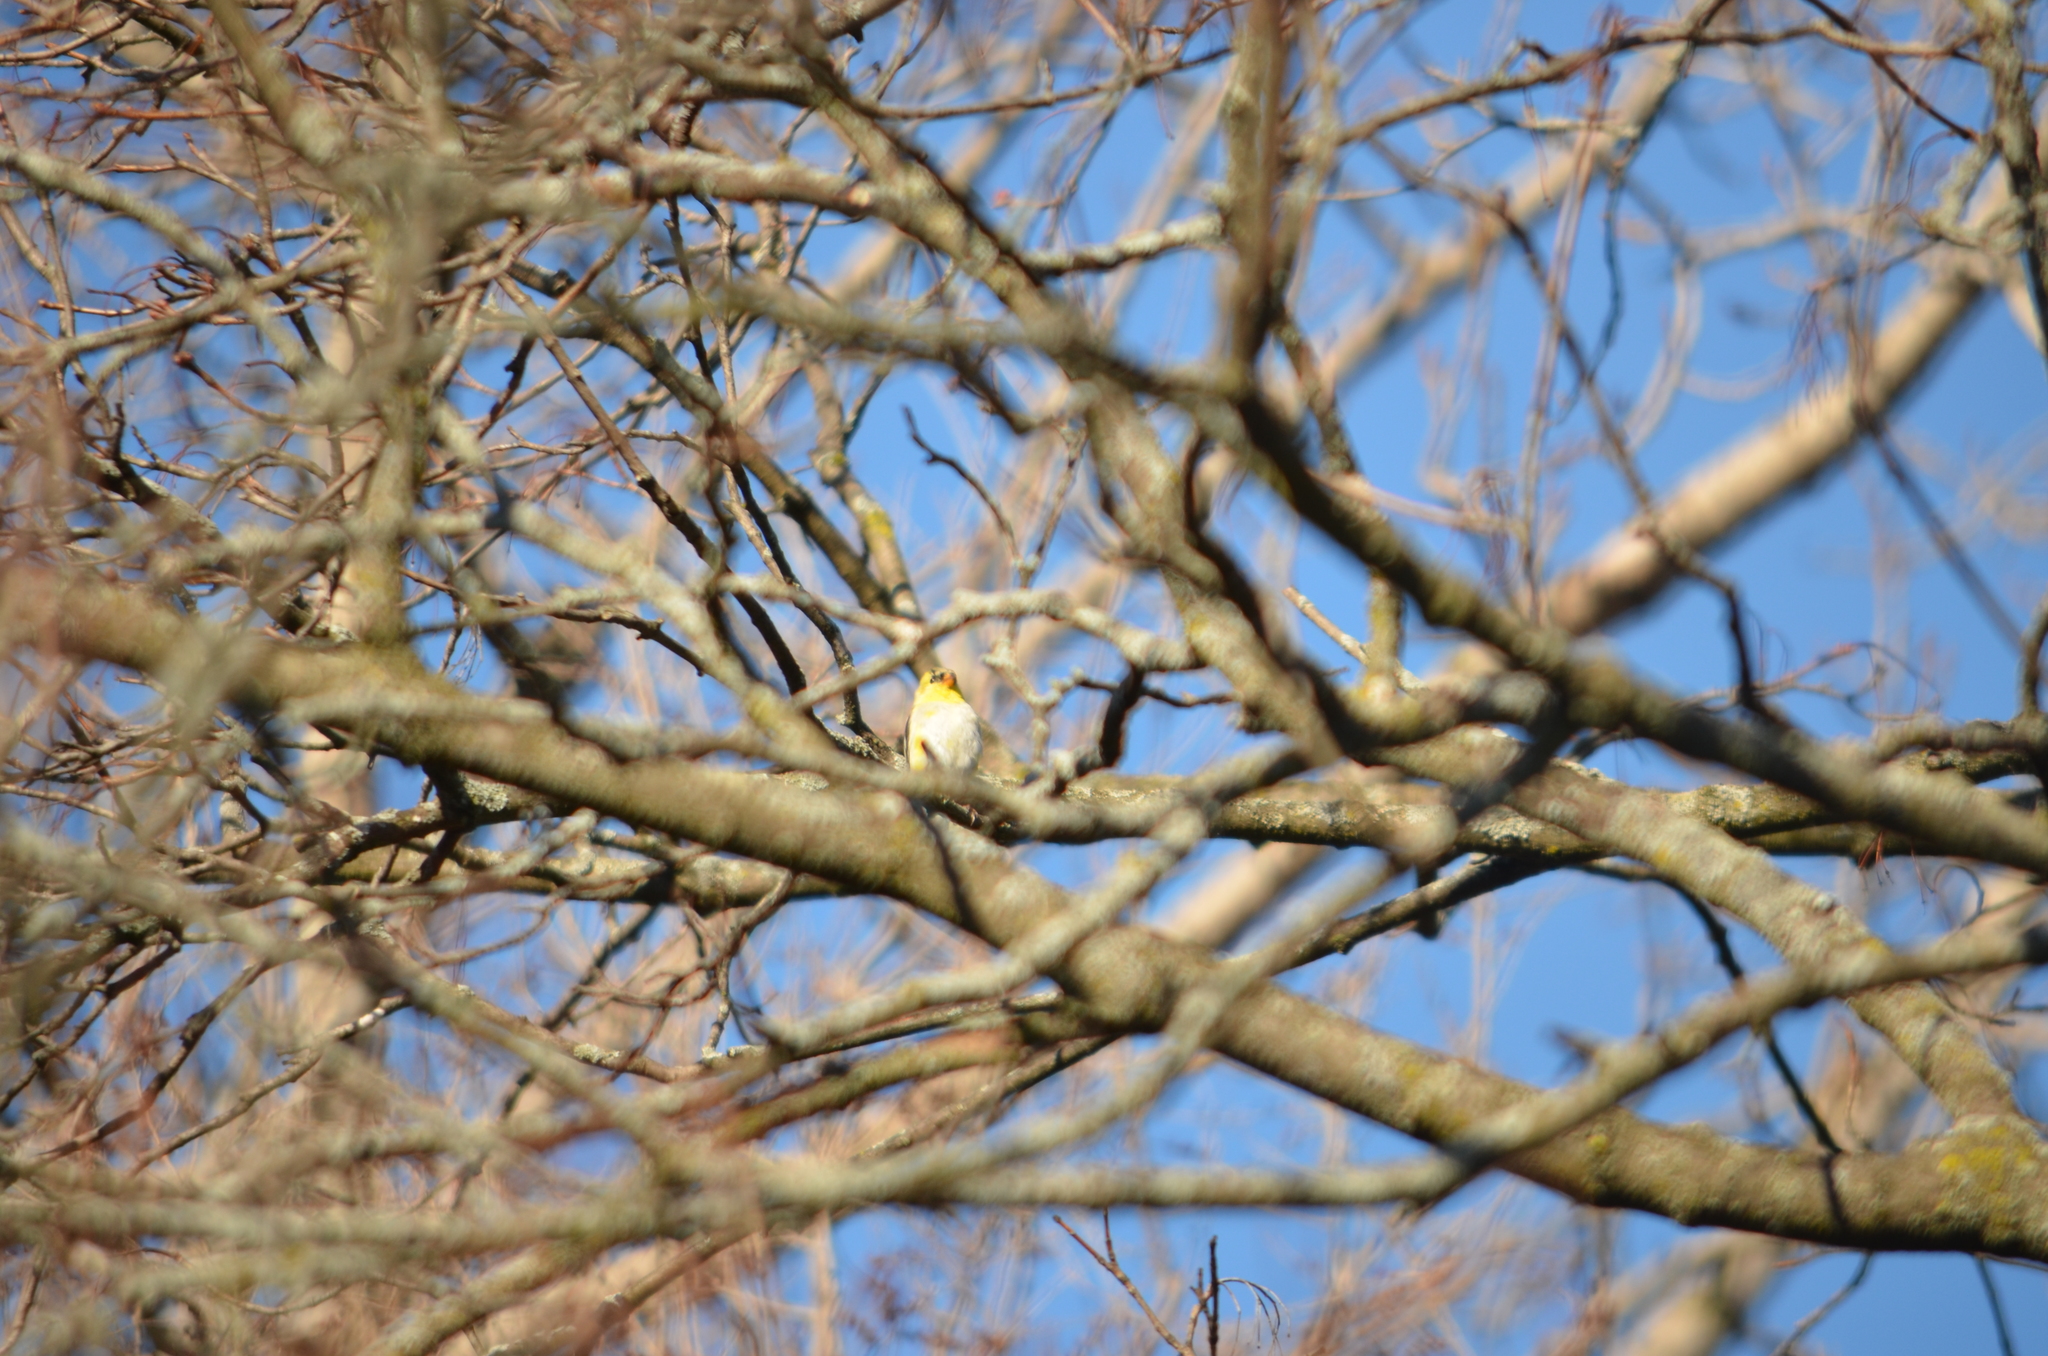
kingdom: Animalia
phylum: Chordata
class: Aves
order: Passeriformes
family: Fringillidae
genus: Spinus
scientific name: Spinus tristis
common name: American goldfinch
